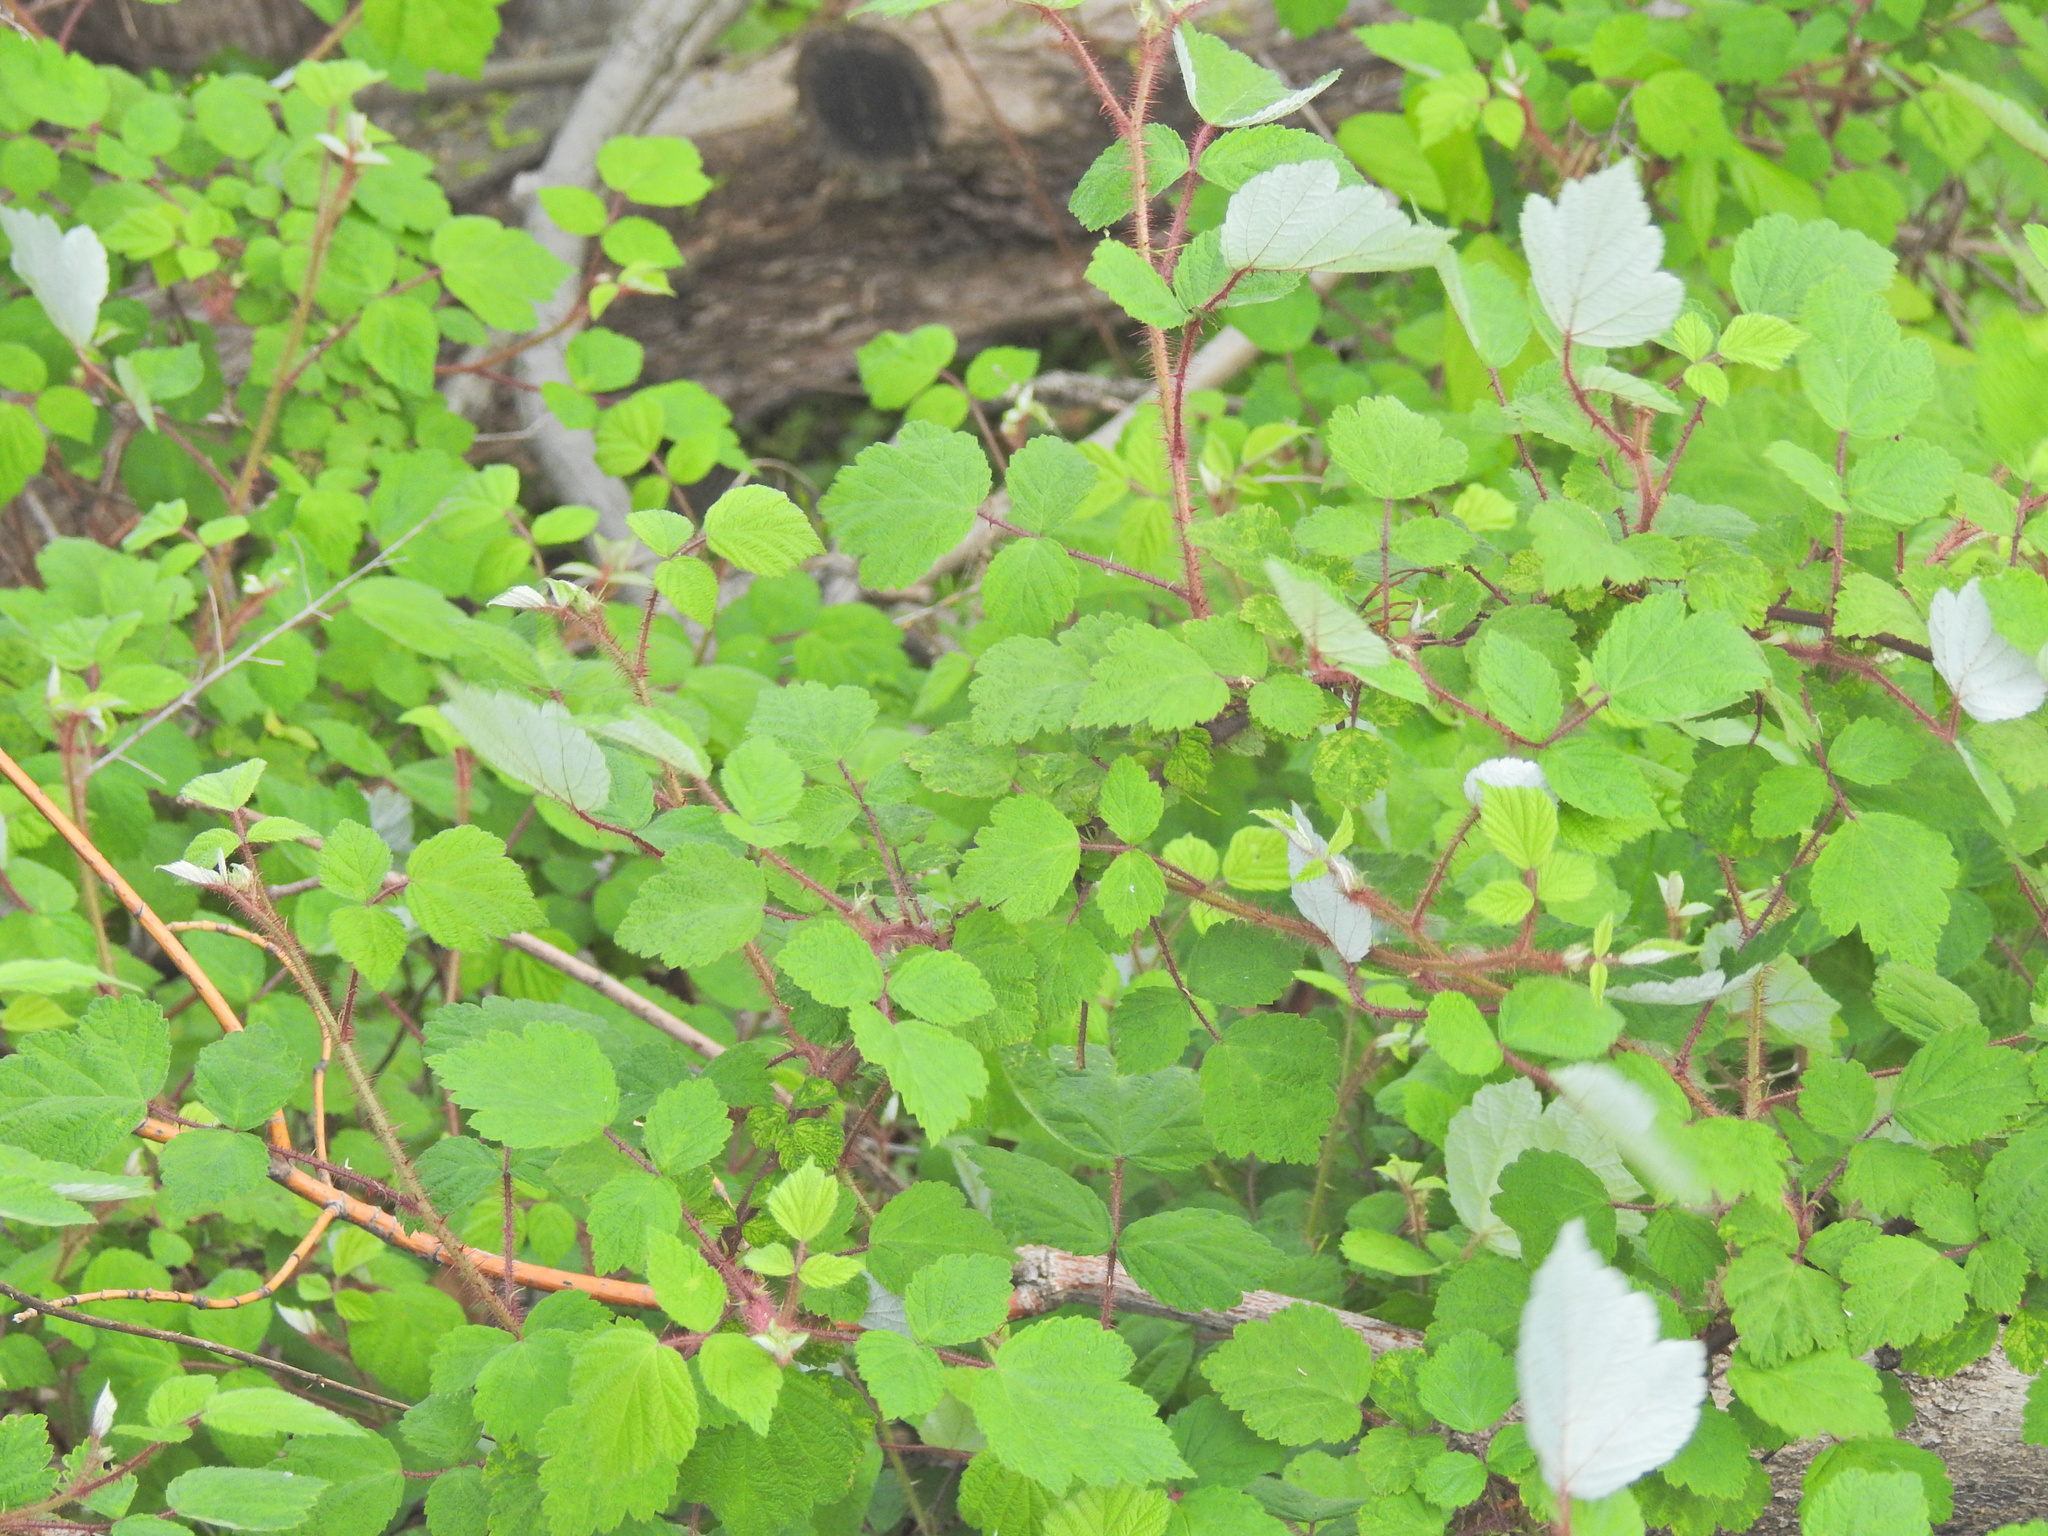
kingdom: Plantae
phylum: Tracheophyta
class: Magnoliopsida
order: Rosales
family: Rosaceae
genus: Rubus
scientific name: Rubus phoenicolasius
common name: Japanese wineberry
